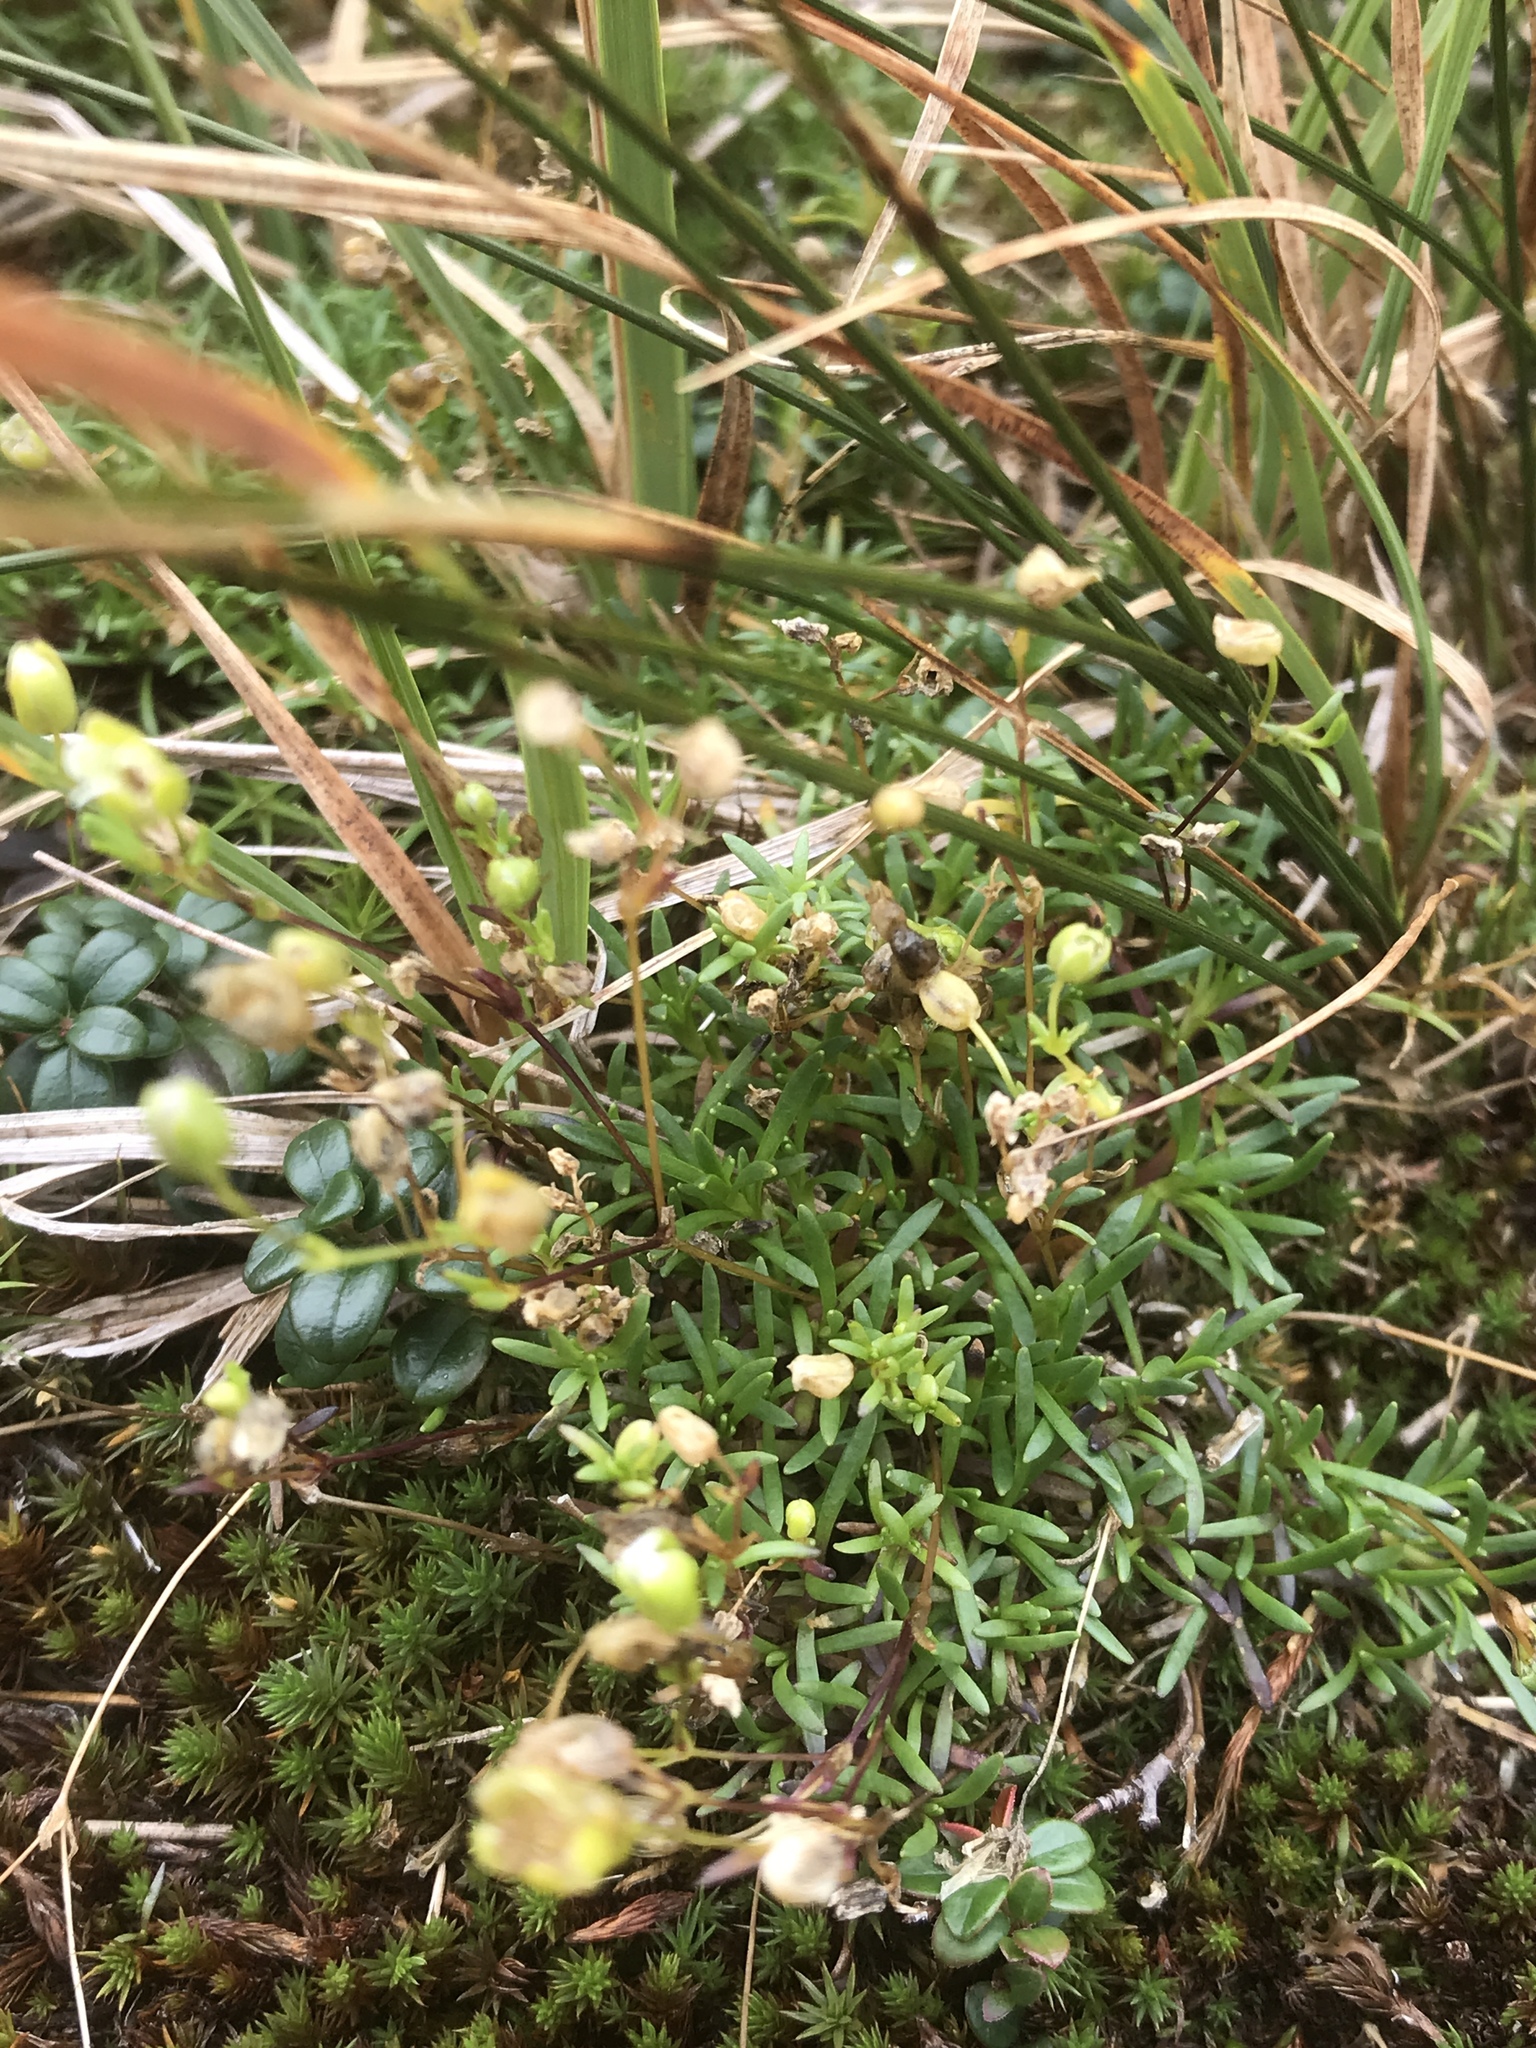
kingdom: Plantae
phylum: Tracheophyta
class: Magnoliopsida
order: Caryophyllales
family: Caryophyllaceae
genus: Geocarpon
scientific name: Geocarpon groenlandicum
